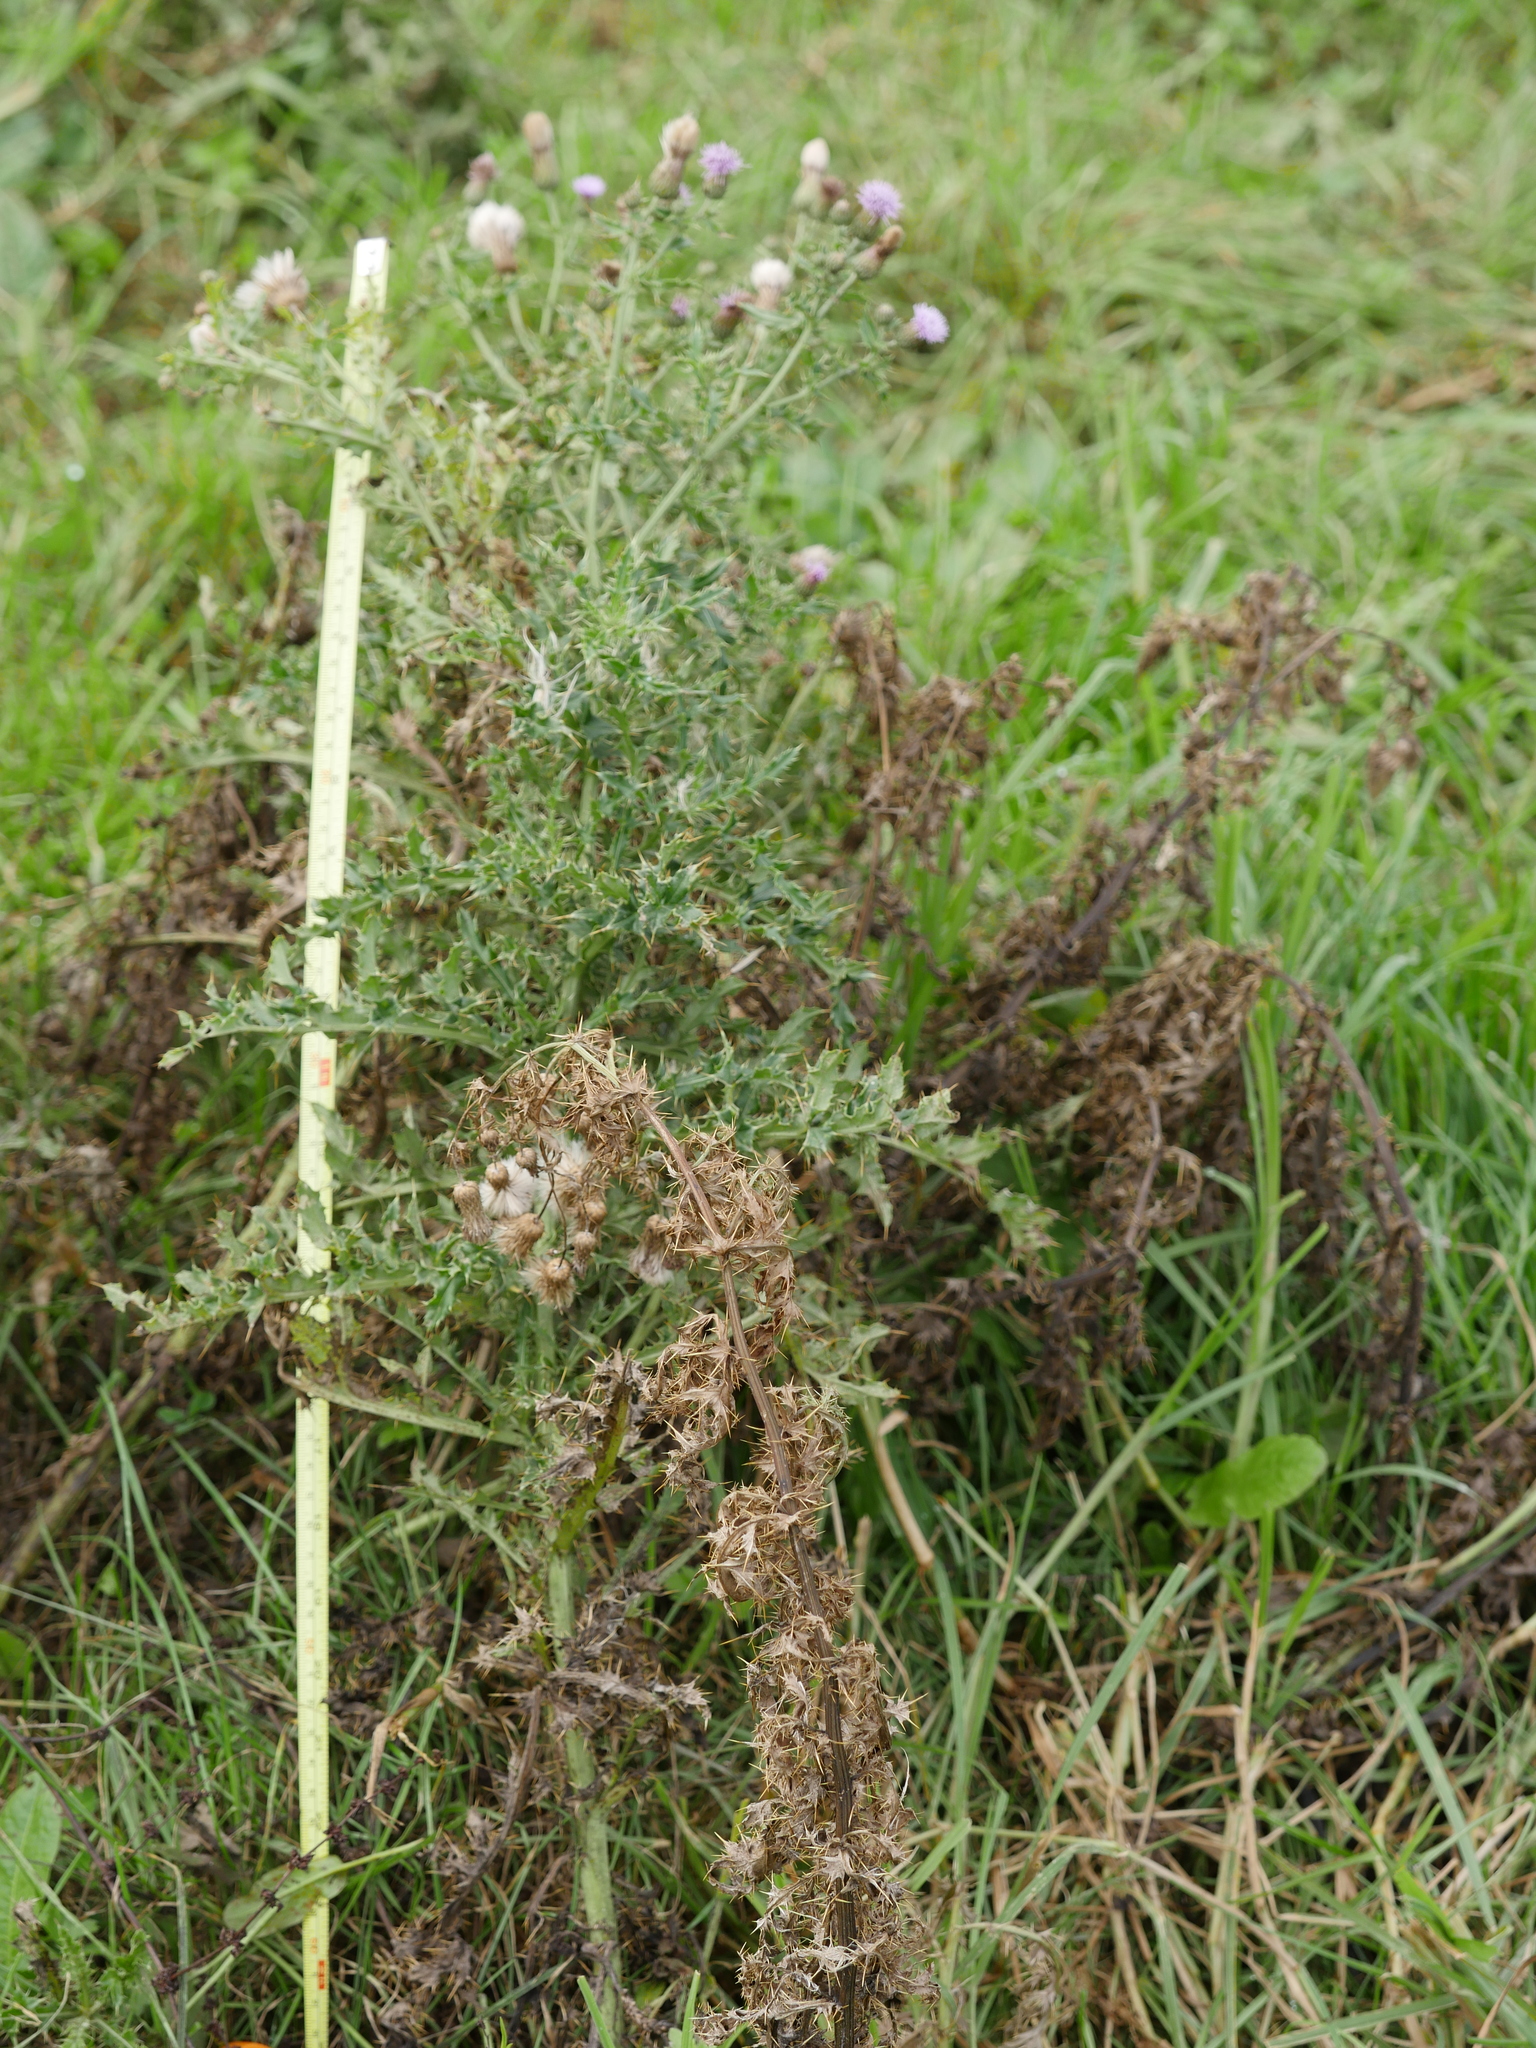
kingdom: Plantae
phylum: Tracheophyta
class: Magnoliopsida
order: Asterales
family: Asteraceae
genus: Cirsium
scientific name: Cirsium arvense
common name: Creeping thistle
